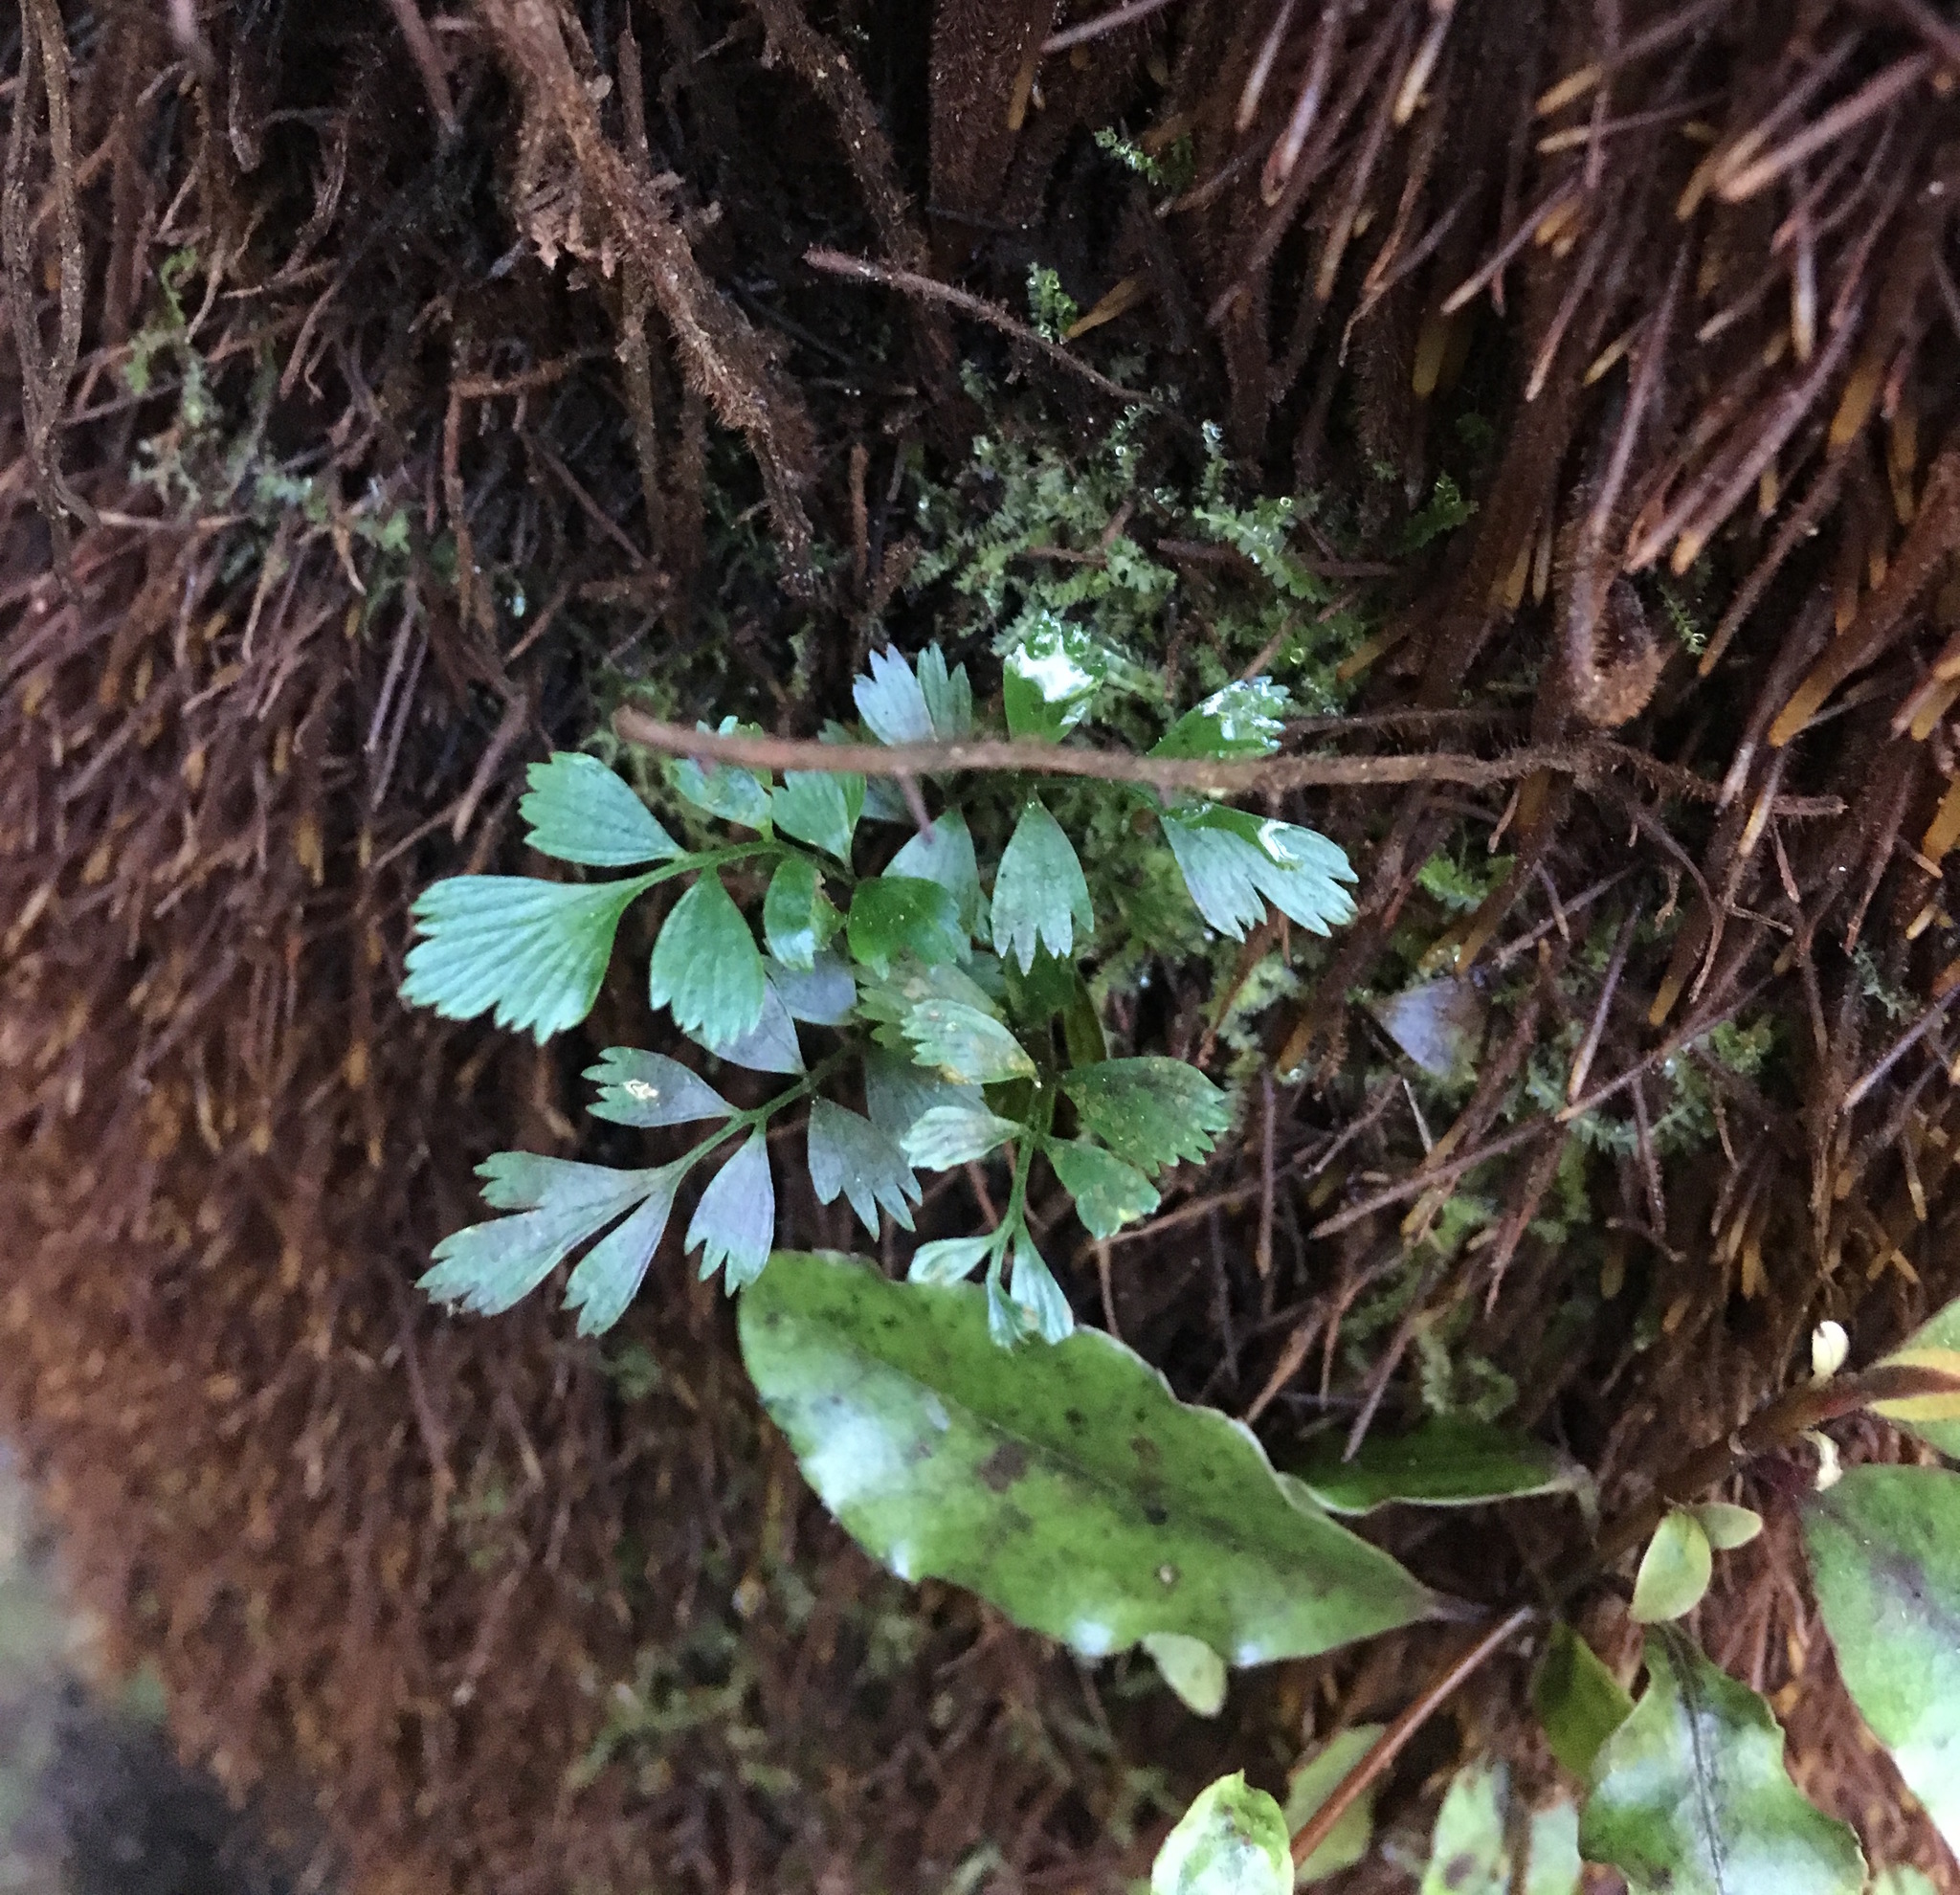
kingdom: Plantae
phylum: Tracheophyta
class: Polypodiopsida
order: Polypodiales
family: Aspleniaceae
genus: Asplenium
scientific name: Asplenium polyodon
